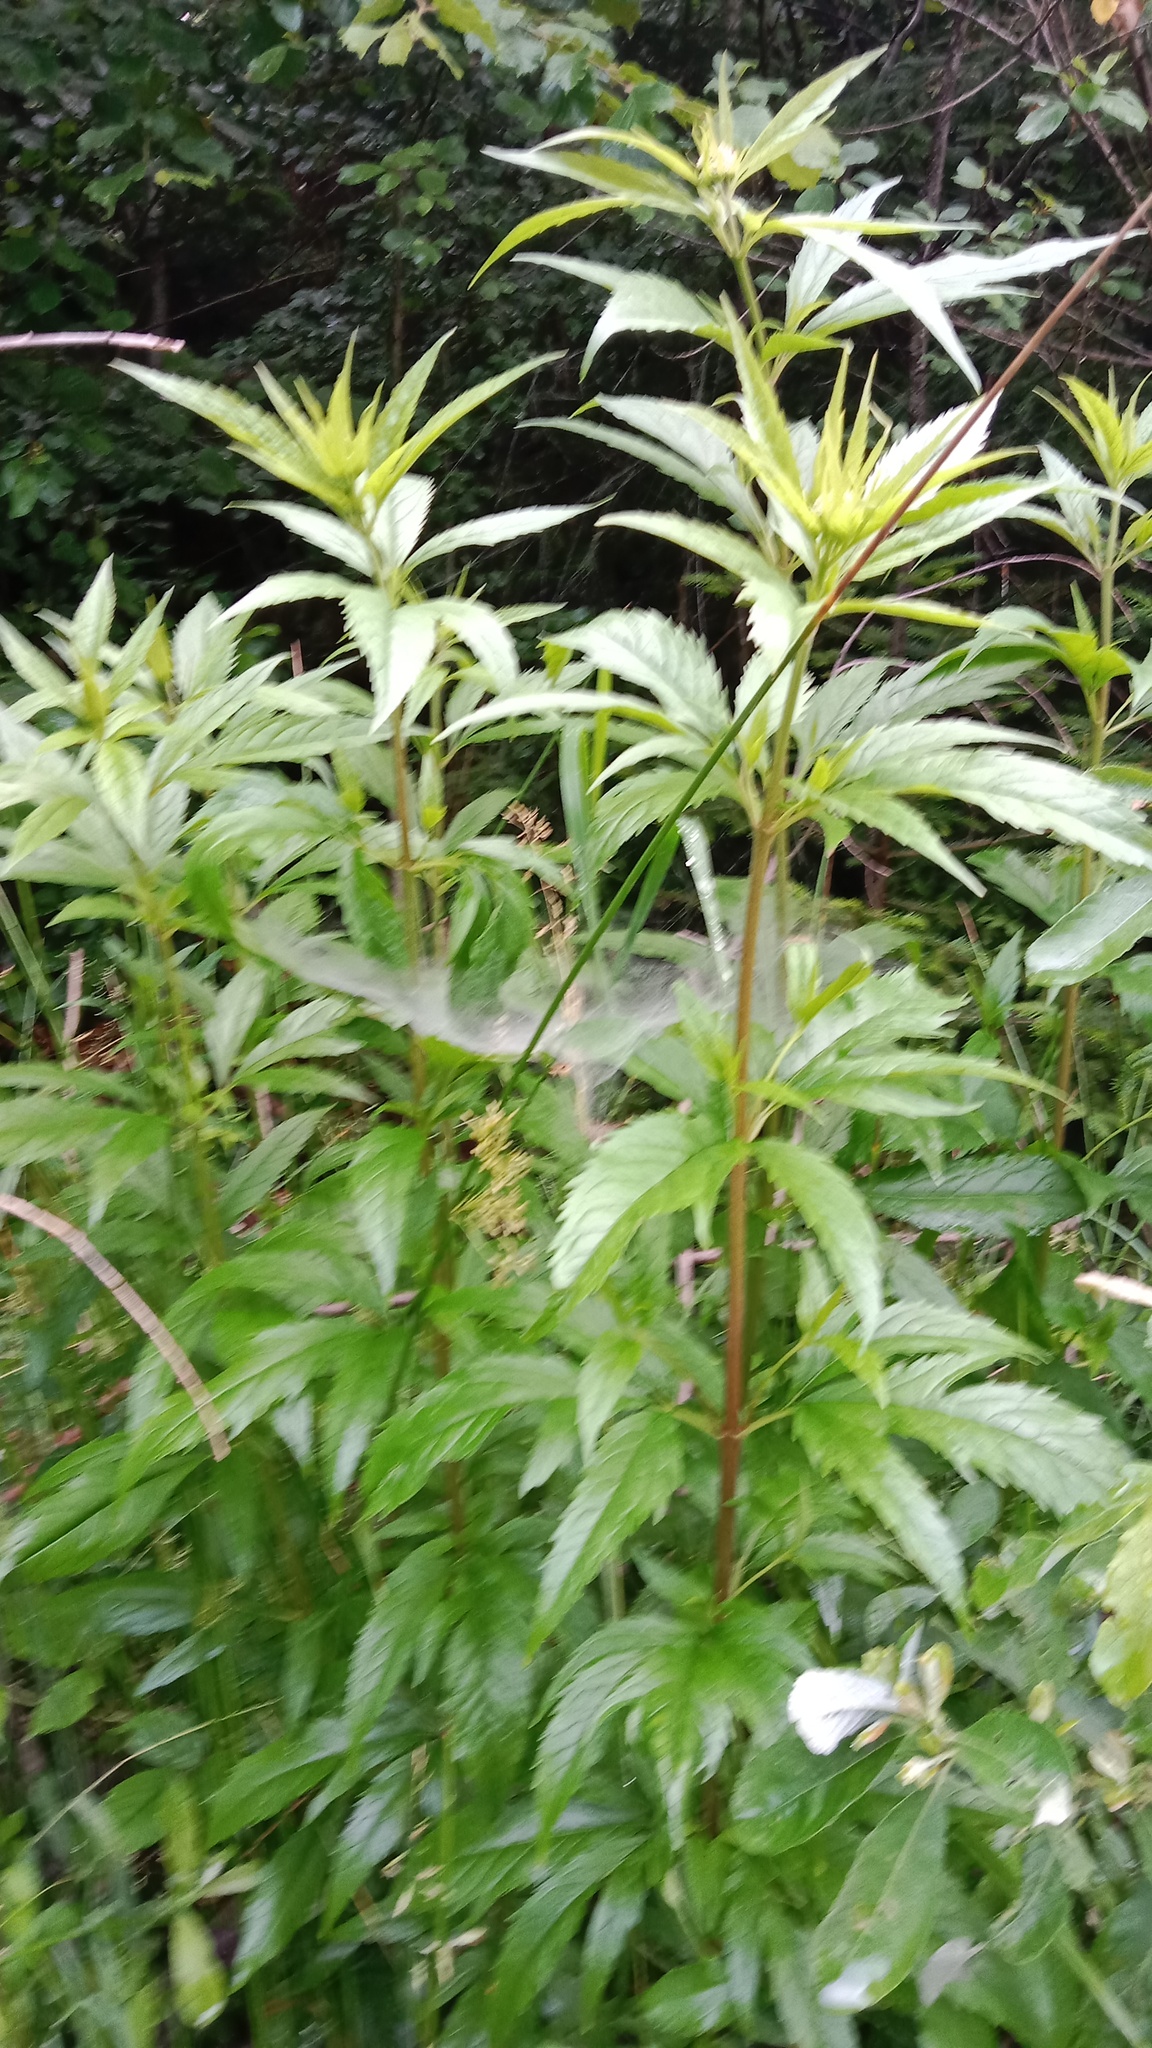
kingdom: Plantae
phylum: Tracheophyta
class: Magnoliopsida
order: Asterales
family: Asteraceae
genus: Eupatorium
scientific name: Eupatorium cannabinum
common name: Hemp-agrimony
